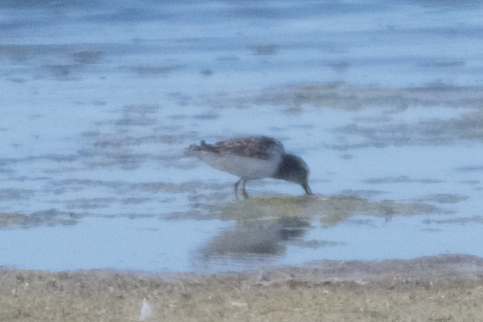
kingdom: Animalia
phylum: Chordata
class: Aves
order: Charadriiformes
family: Scolopacidae
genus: Calidris
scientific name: Calidris minutilla
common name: Least sandpiper
